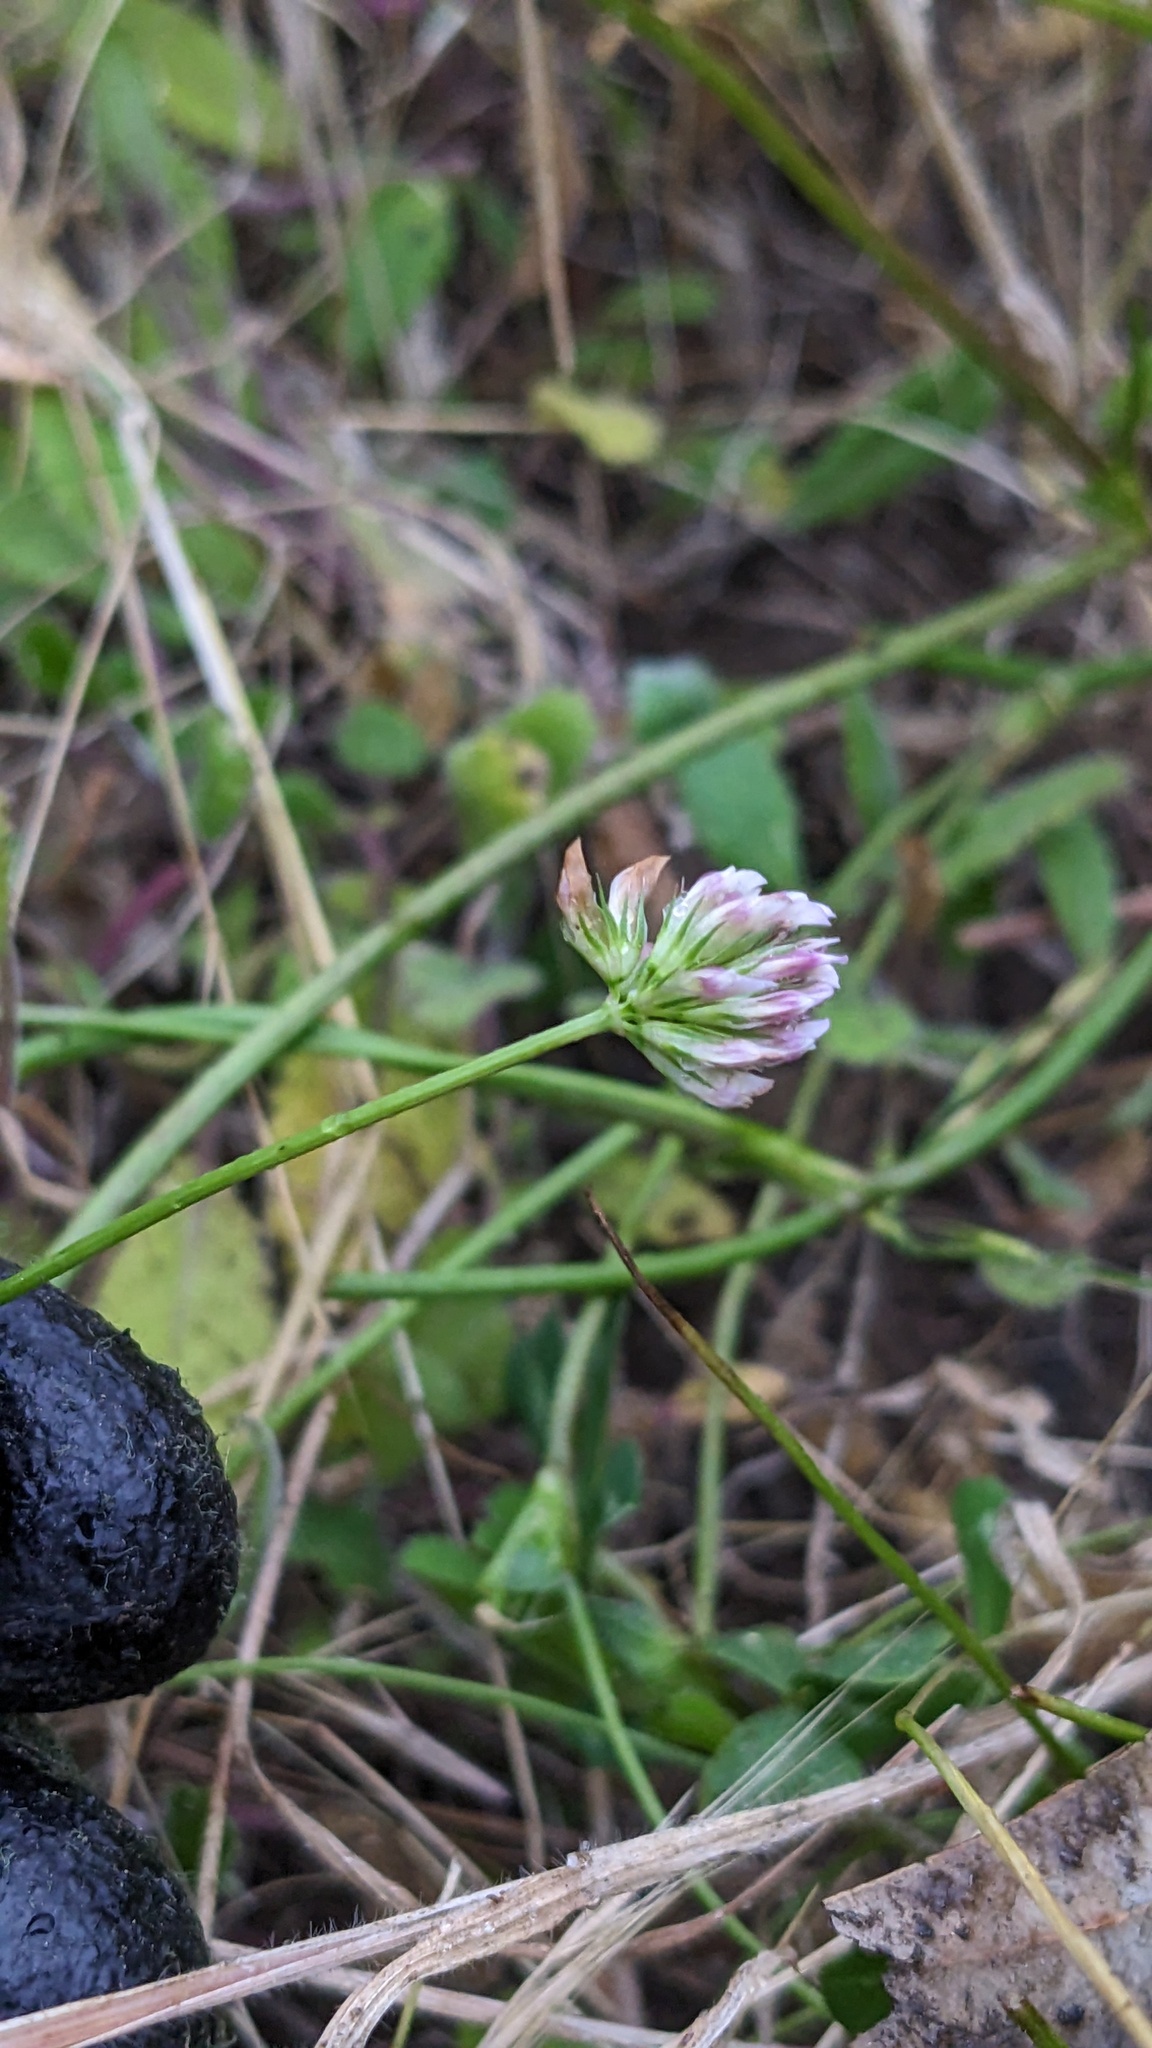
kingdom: Plantae
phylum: Tracheophyta
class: Magnoliopsida
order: Fabales
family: Fabaceae
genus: Trifolium
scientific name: Trifolium gracilentum
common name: Slender clover
